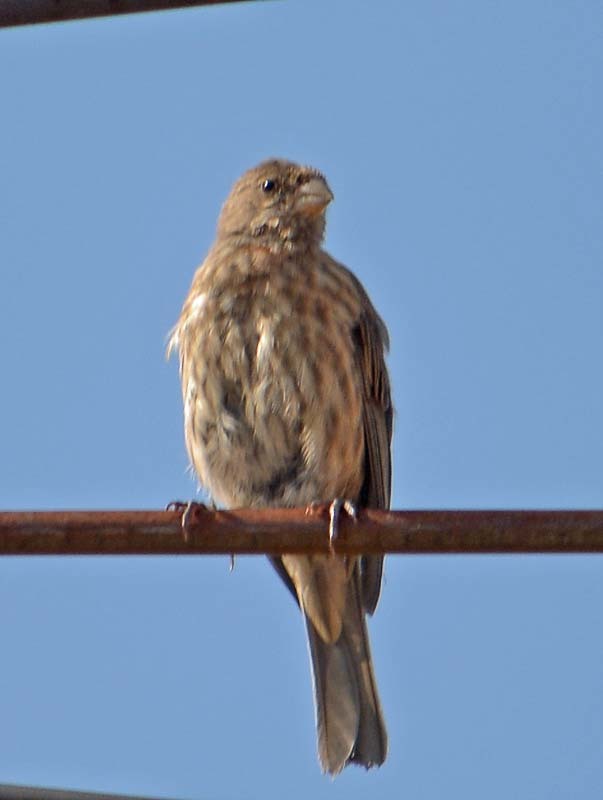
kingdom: Animalia
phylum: Chordata
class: Aves
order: Passeriformes
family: Fringillidae
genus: Haemorhous
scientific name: Haemorhous mexicanus
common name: House finch
